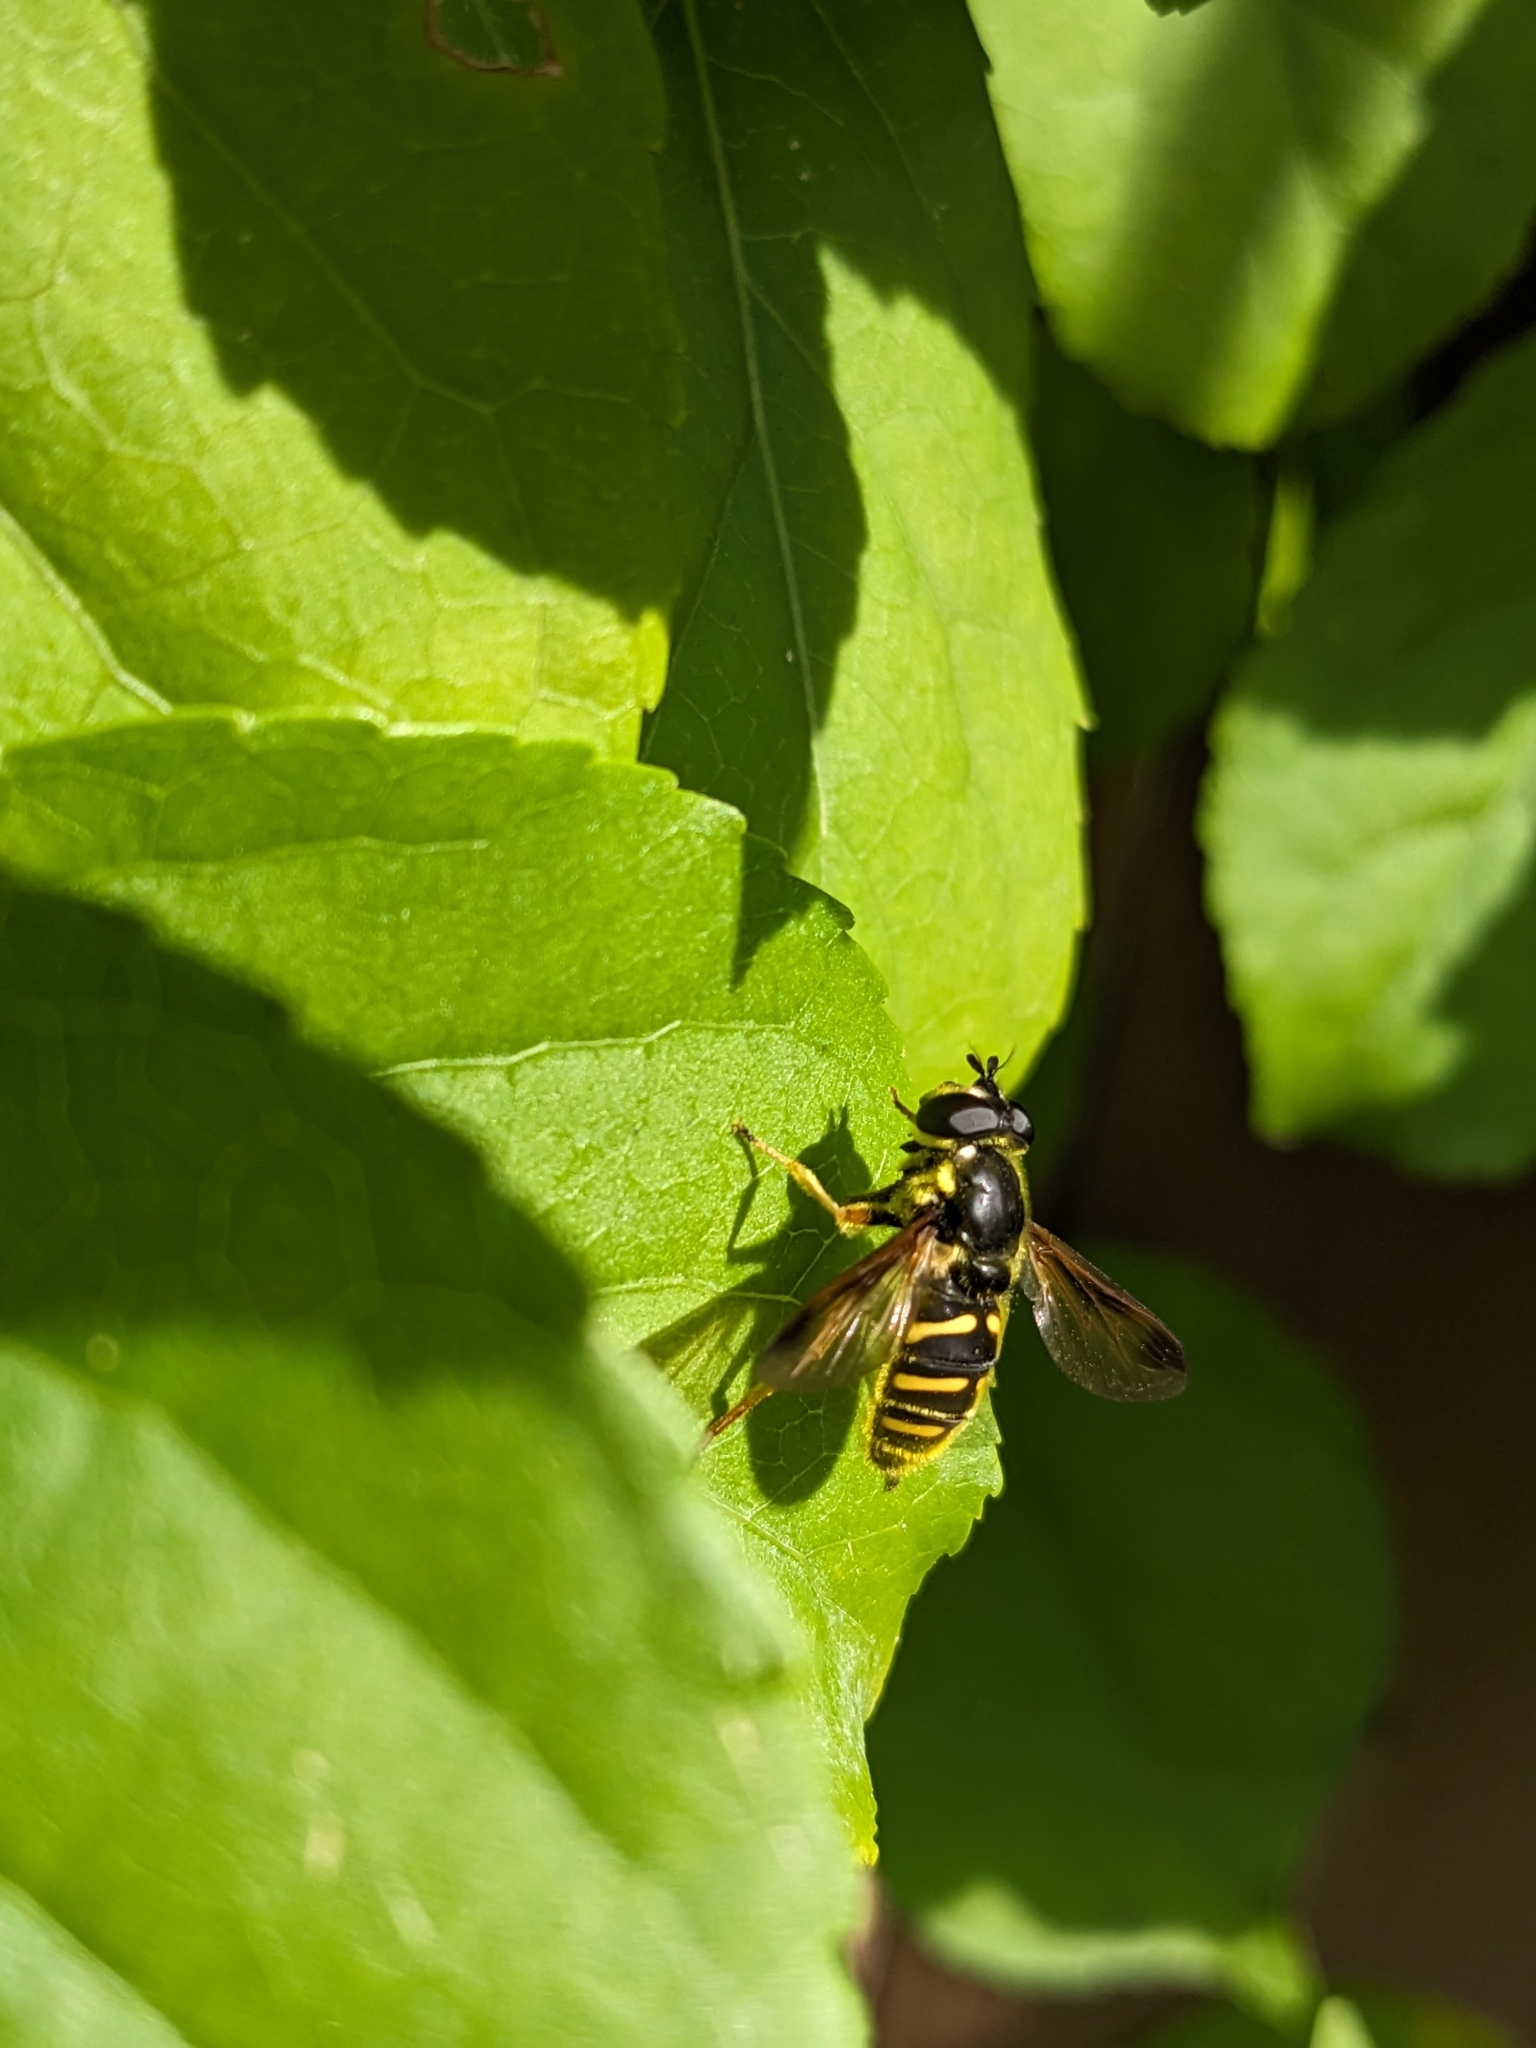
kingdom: Animalia
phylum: Arthropoda
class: Insecta
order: Diptera
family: Syrphidae
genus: Sericomyia
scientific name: Sericomyia chrysotoxoides
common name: Oblique-banded pond fly
